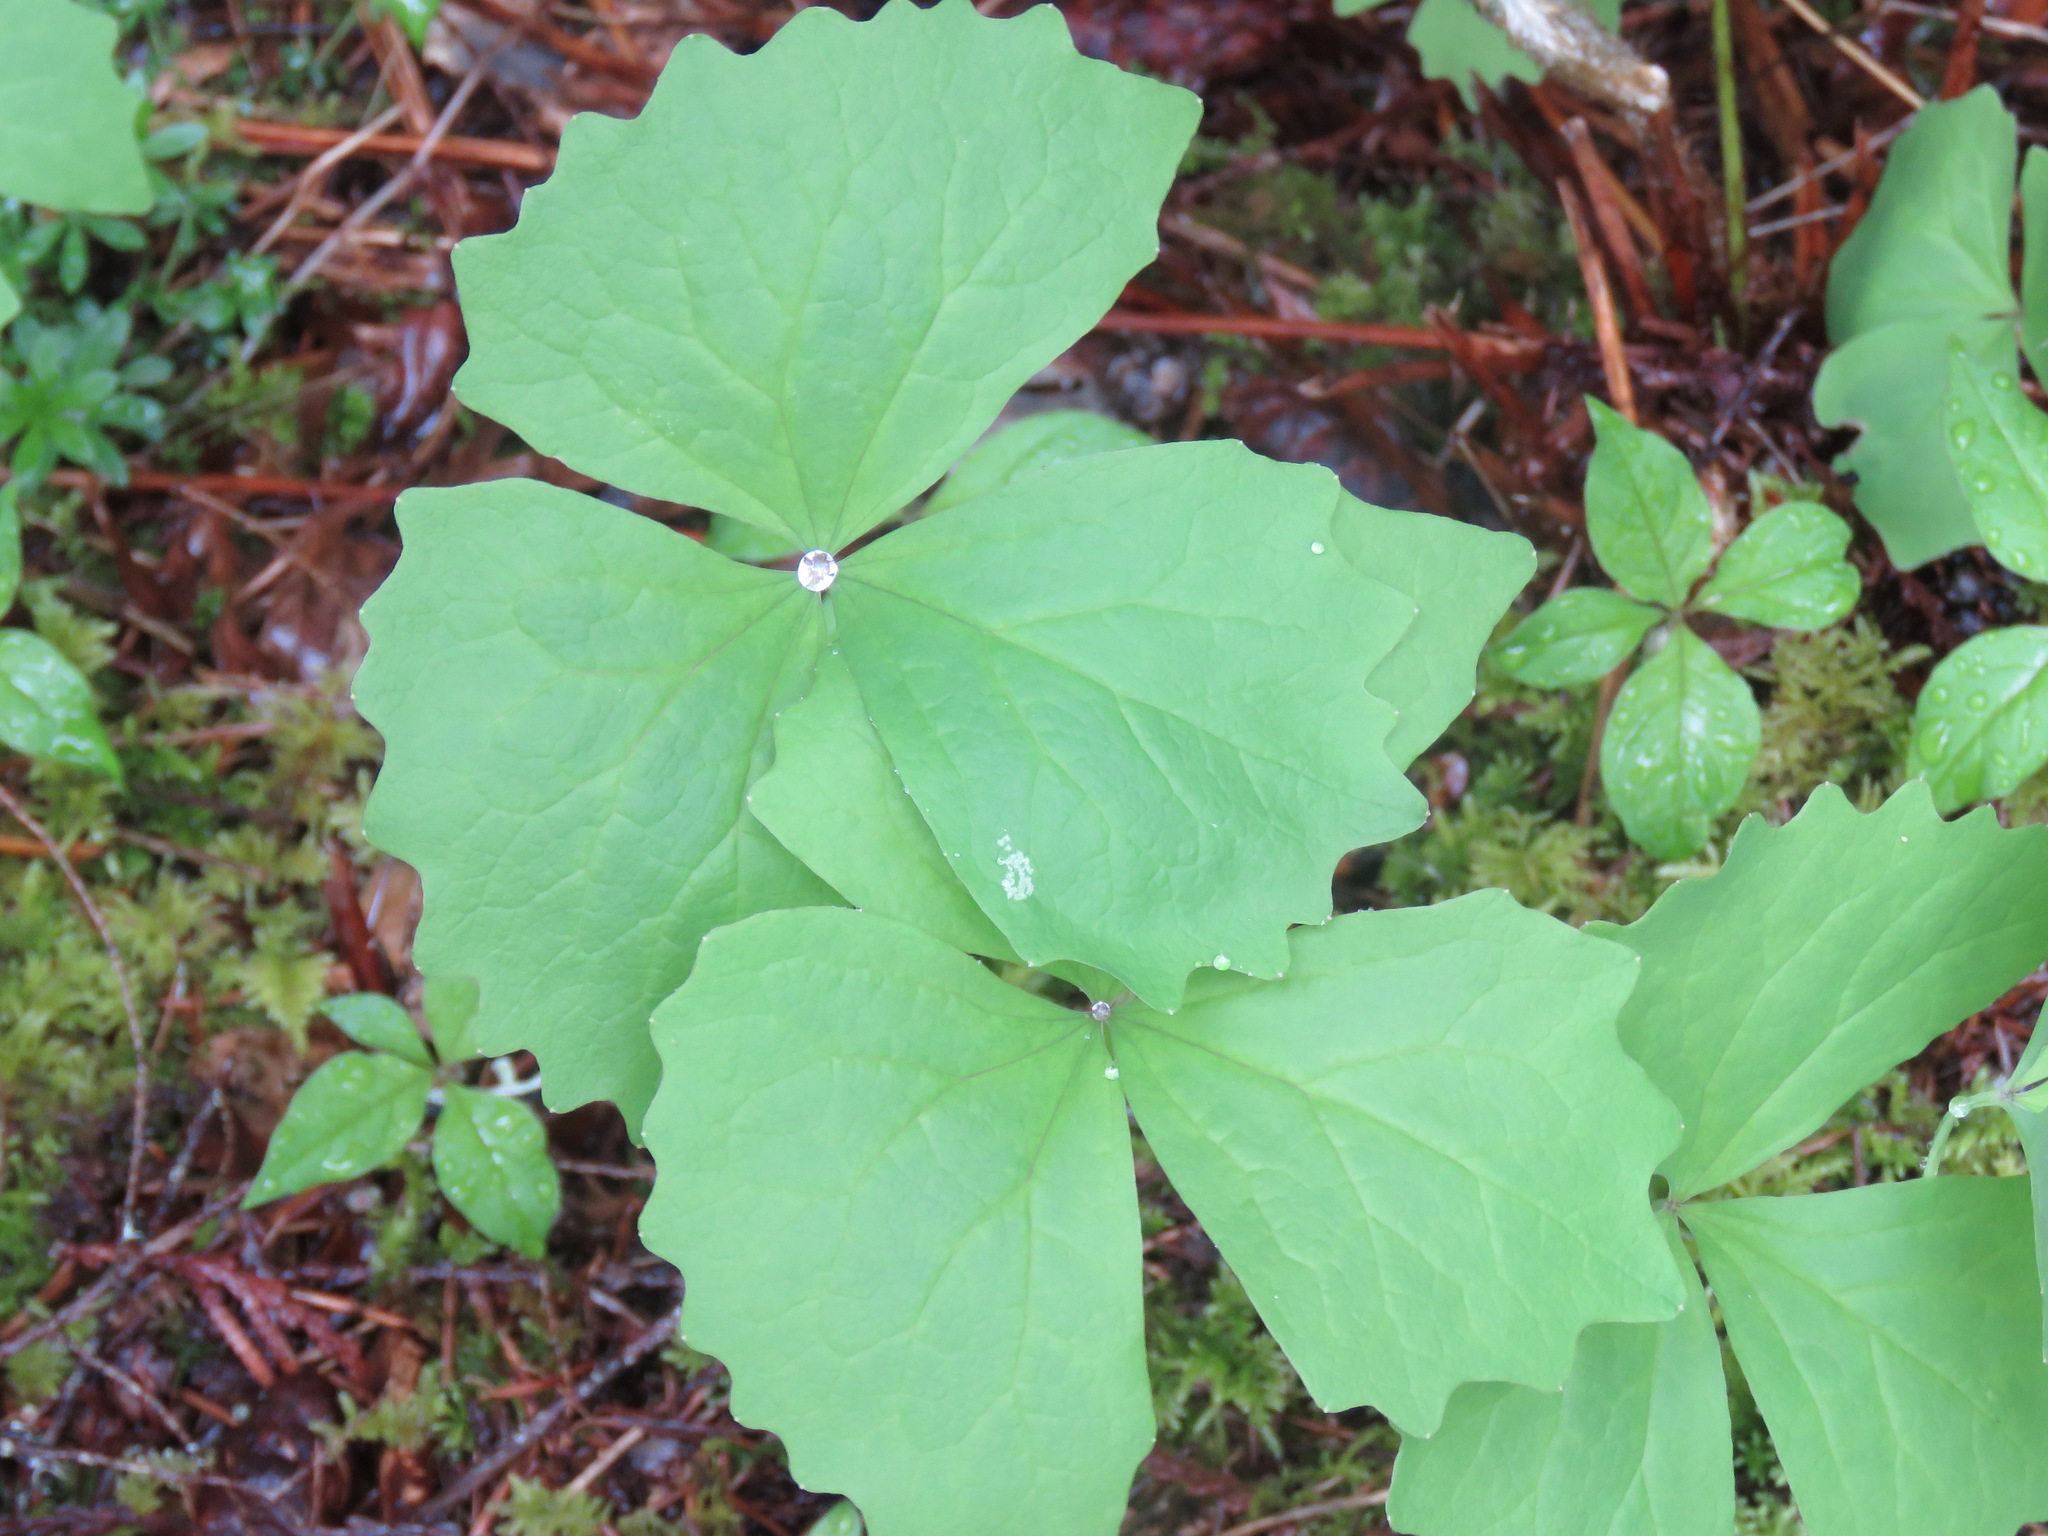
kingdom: Plantae
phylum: Tracheophyta
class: Magnoliopsida
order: Ranunculales
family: Berberidaceae
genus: Achlys
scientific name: Achlys triphylla
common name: Vanilla-leaf
